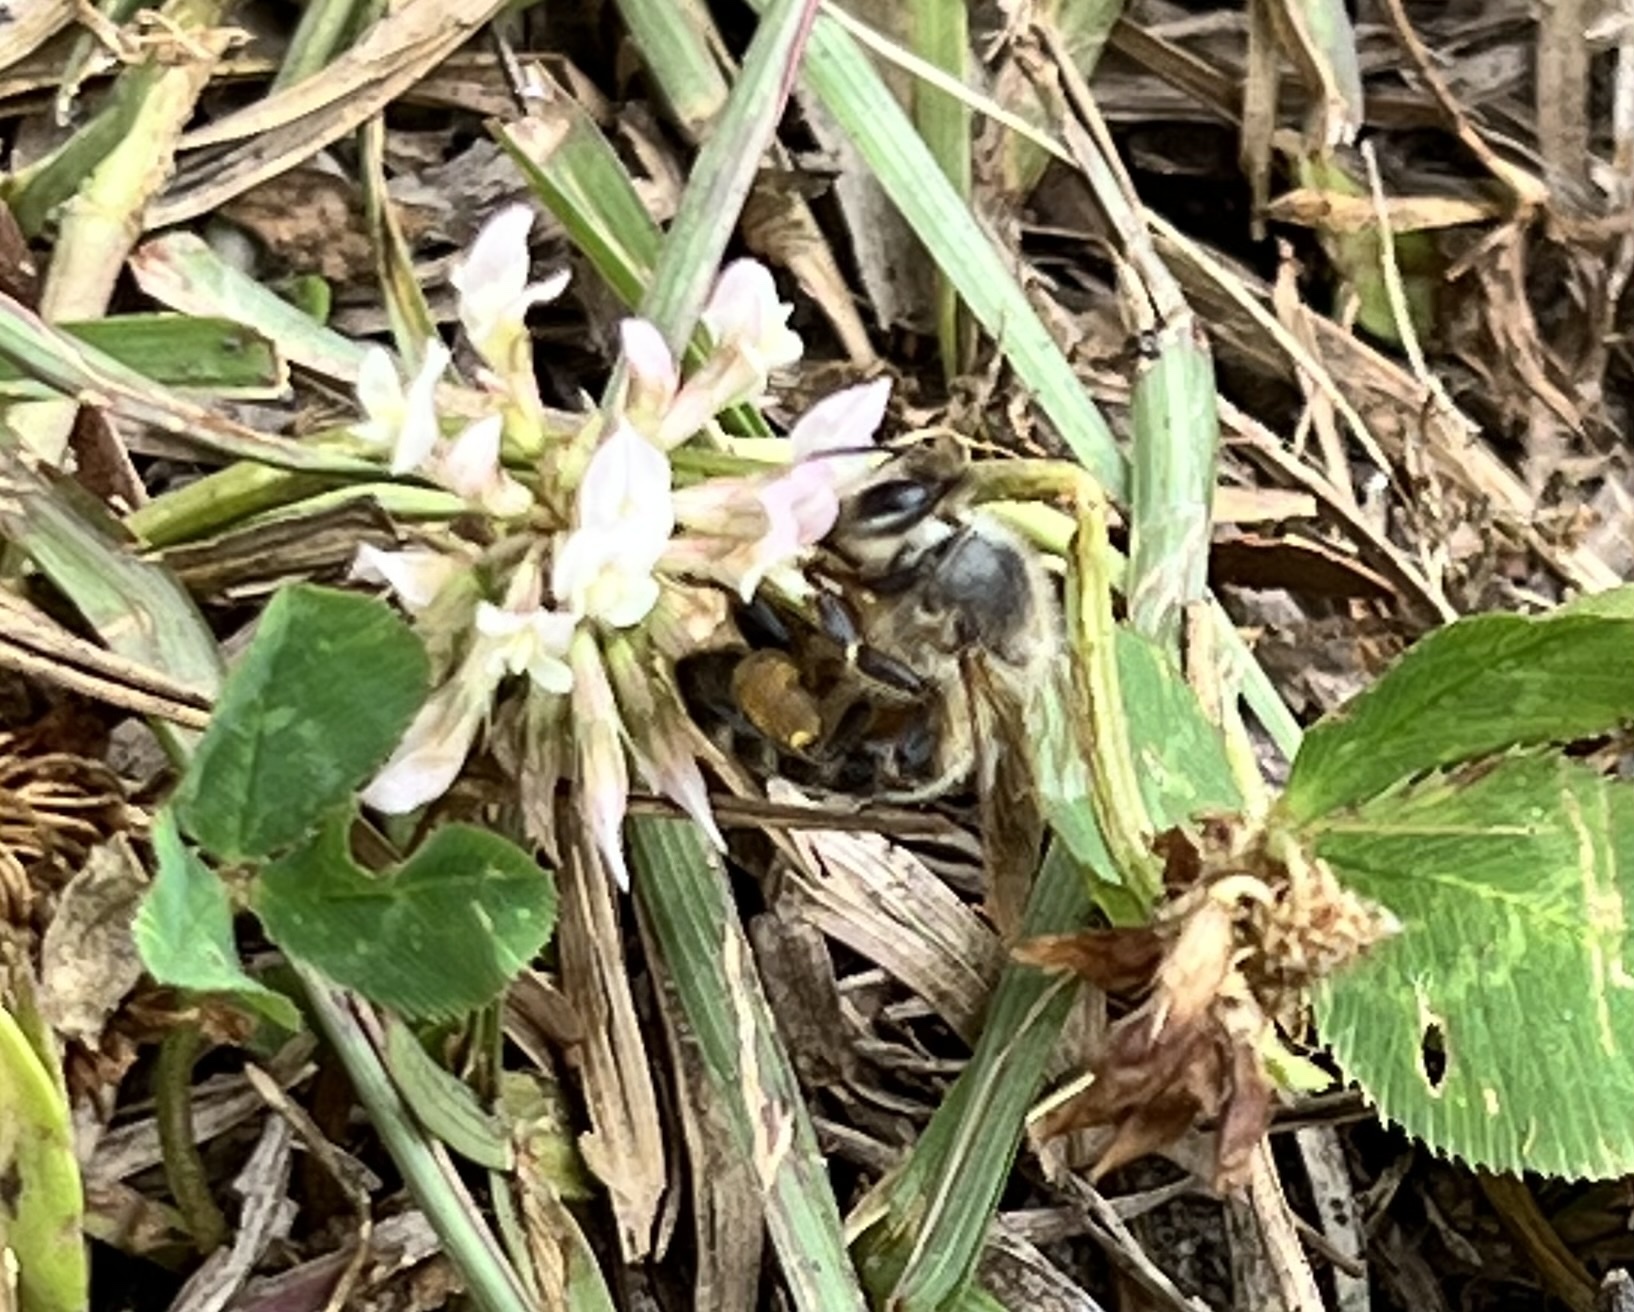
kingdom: Animalia
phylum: Arthropoda
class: Insecta
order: Hymenoptera
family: Apidae
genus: Apis
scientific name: Apis mellifera
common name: Honey bee
